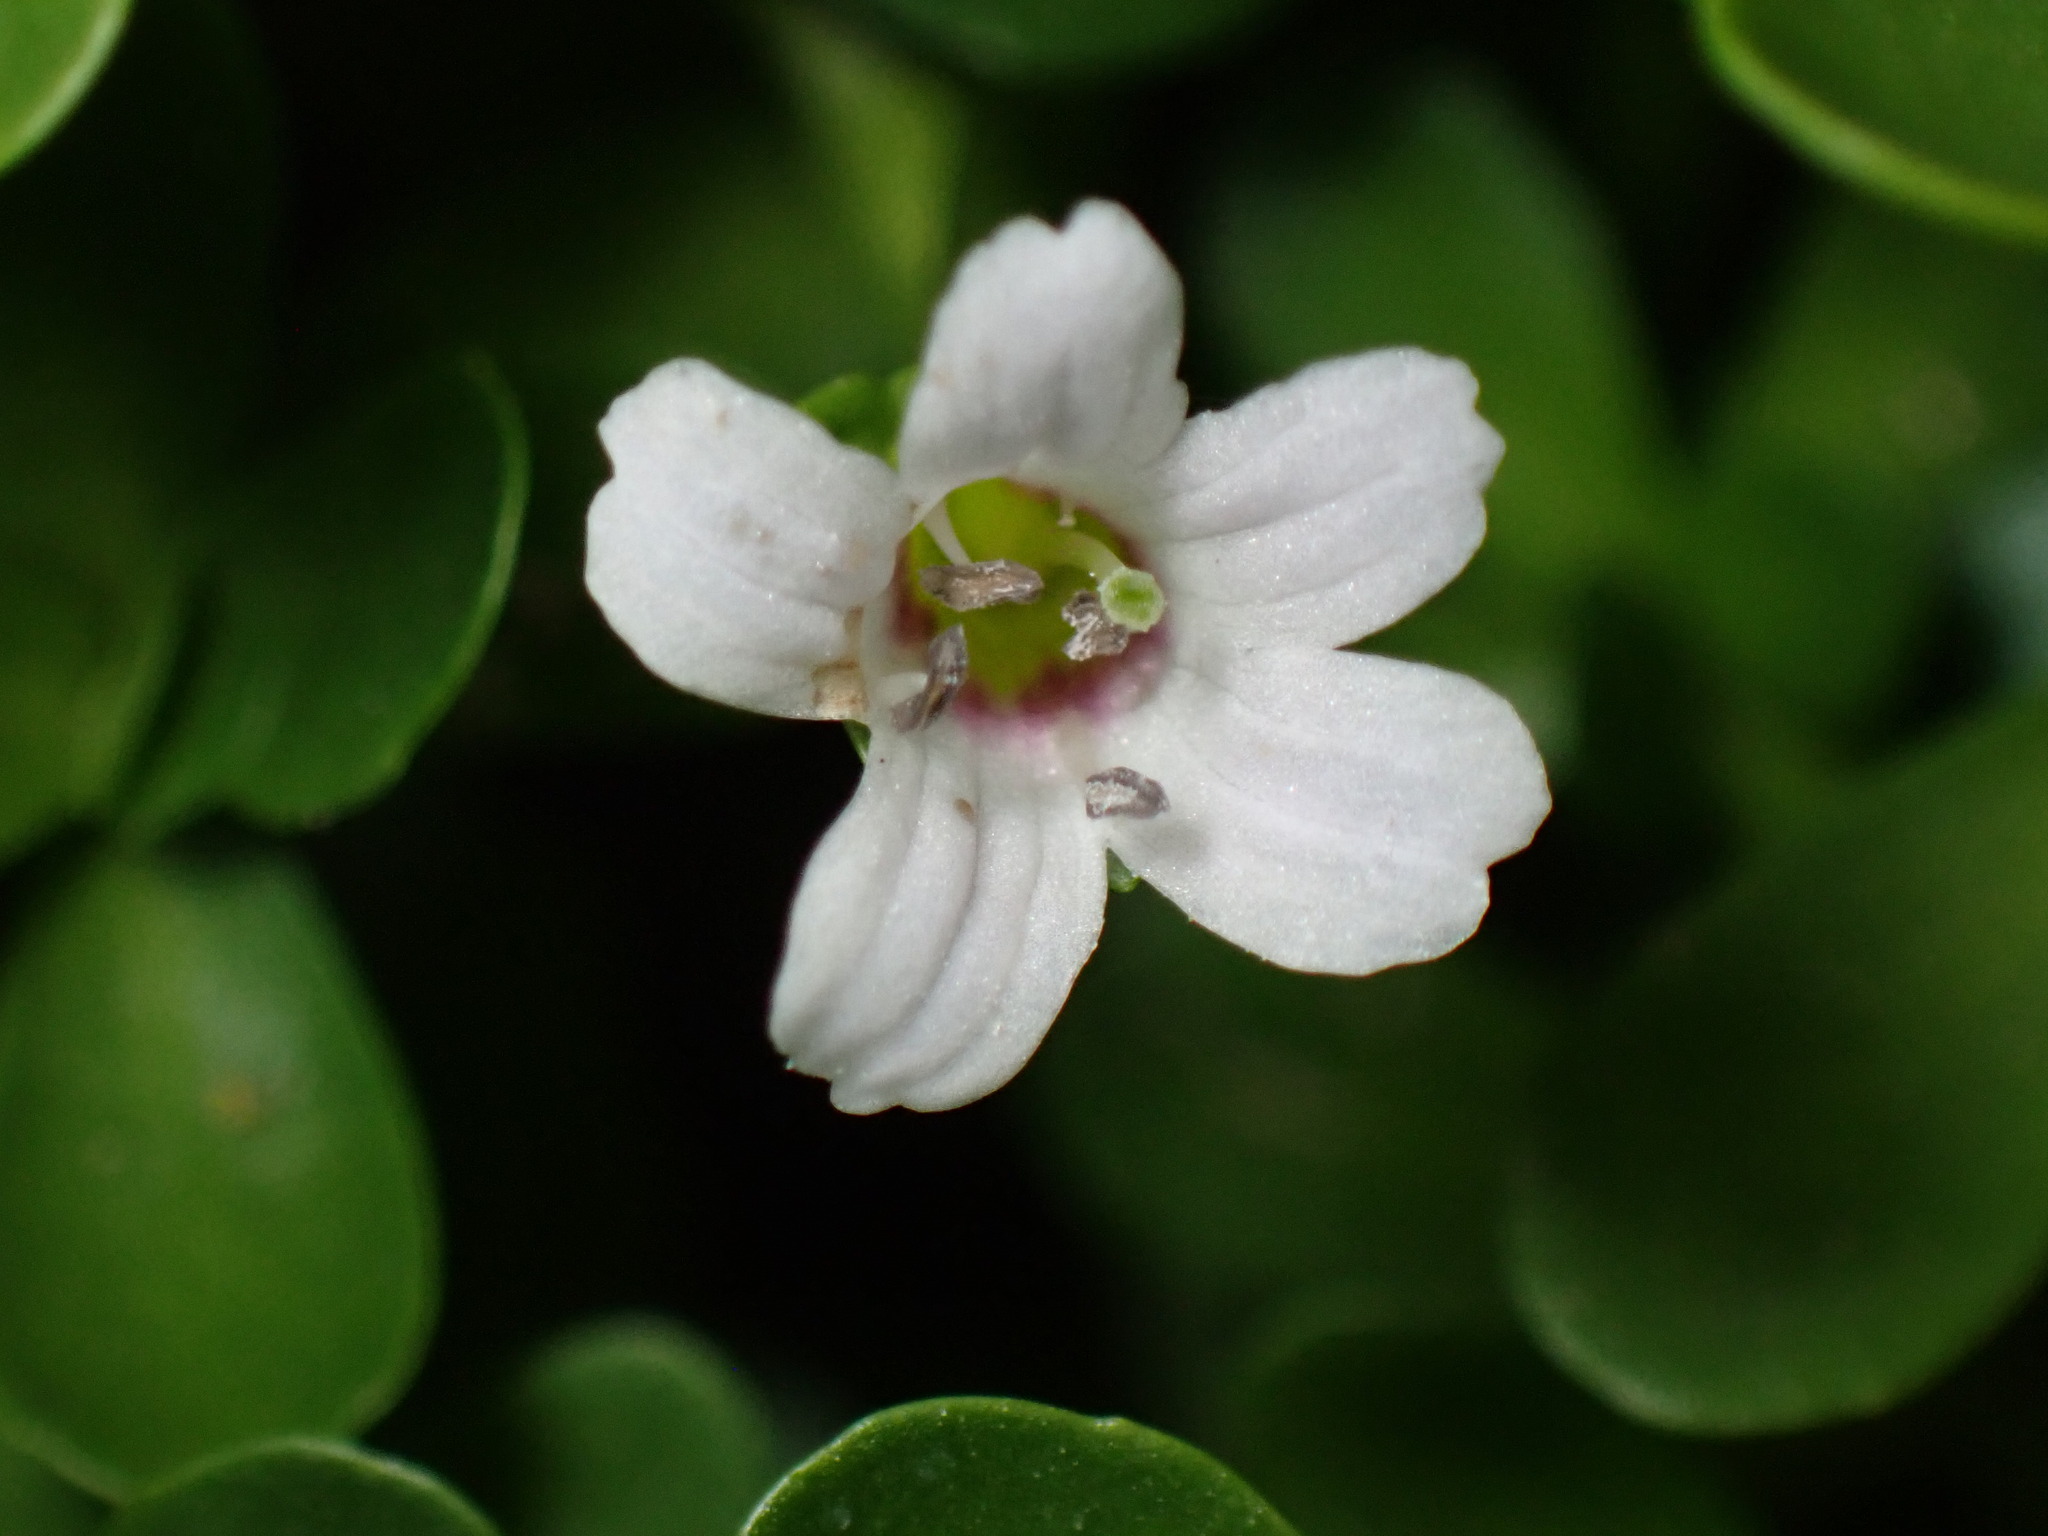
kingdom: Plantae
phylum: Tracheophyta
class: Magnoliopsida
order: Lamiales
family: Plantaginaceae
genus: Bacopa
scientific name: Bacopa monnieri
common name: Indian-pennywort
